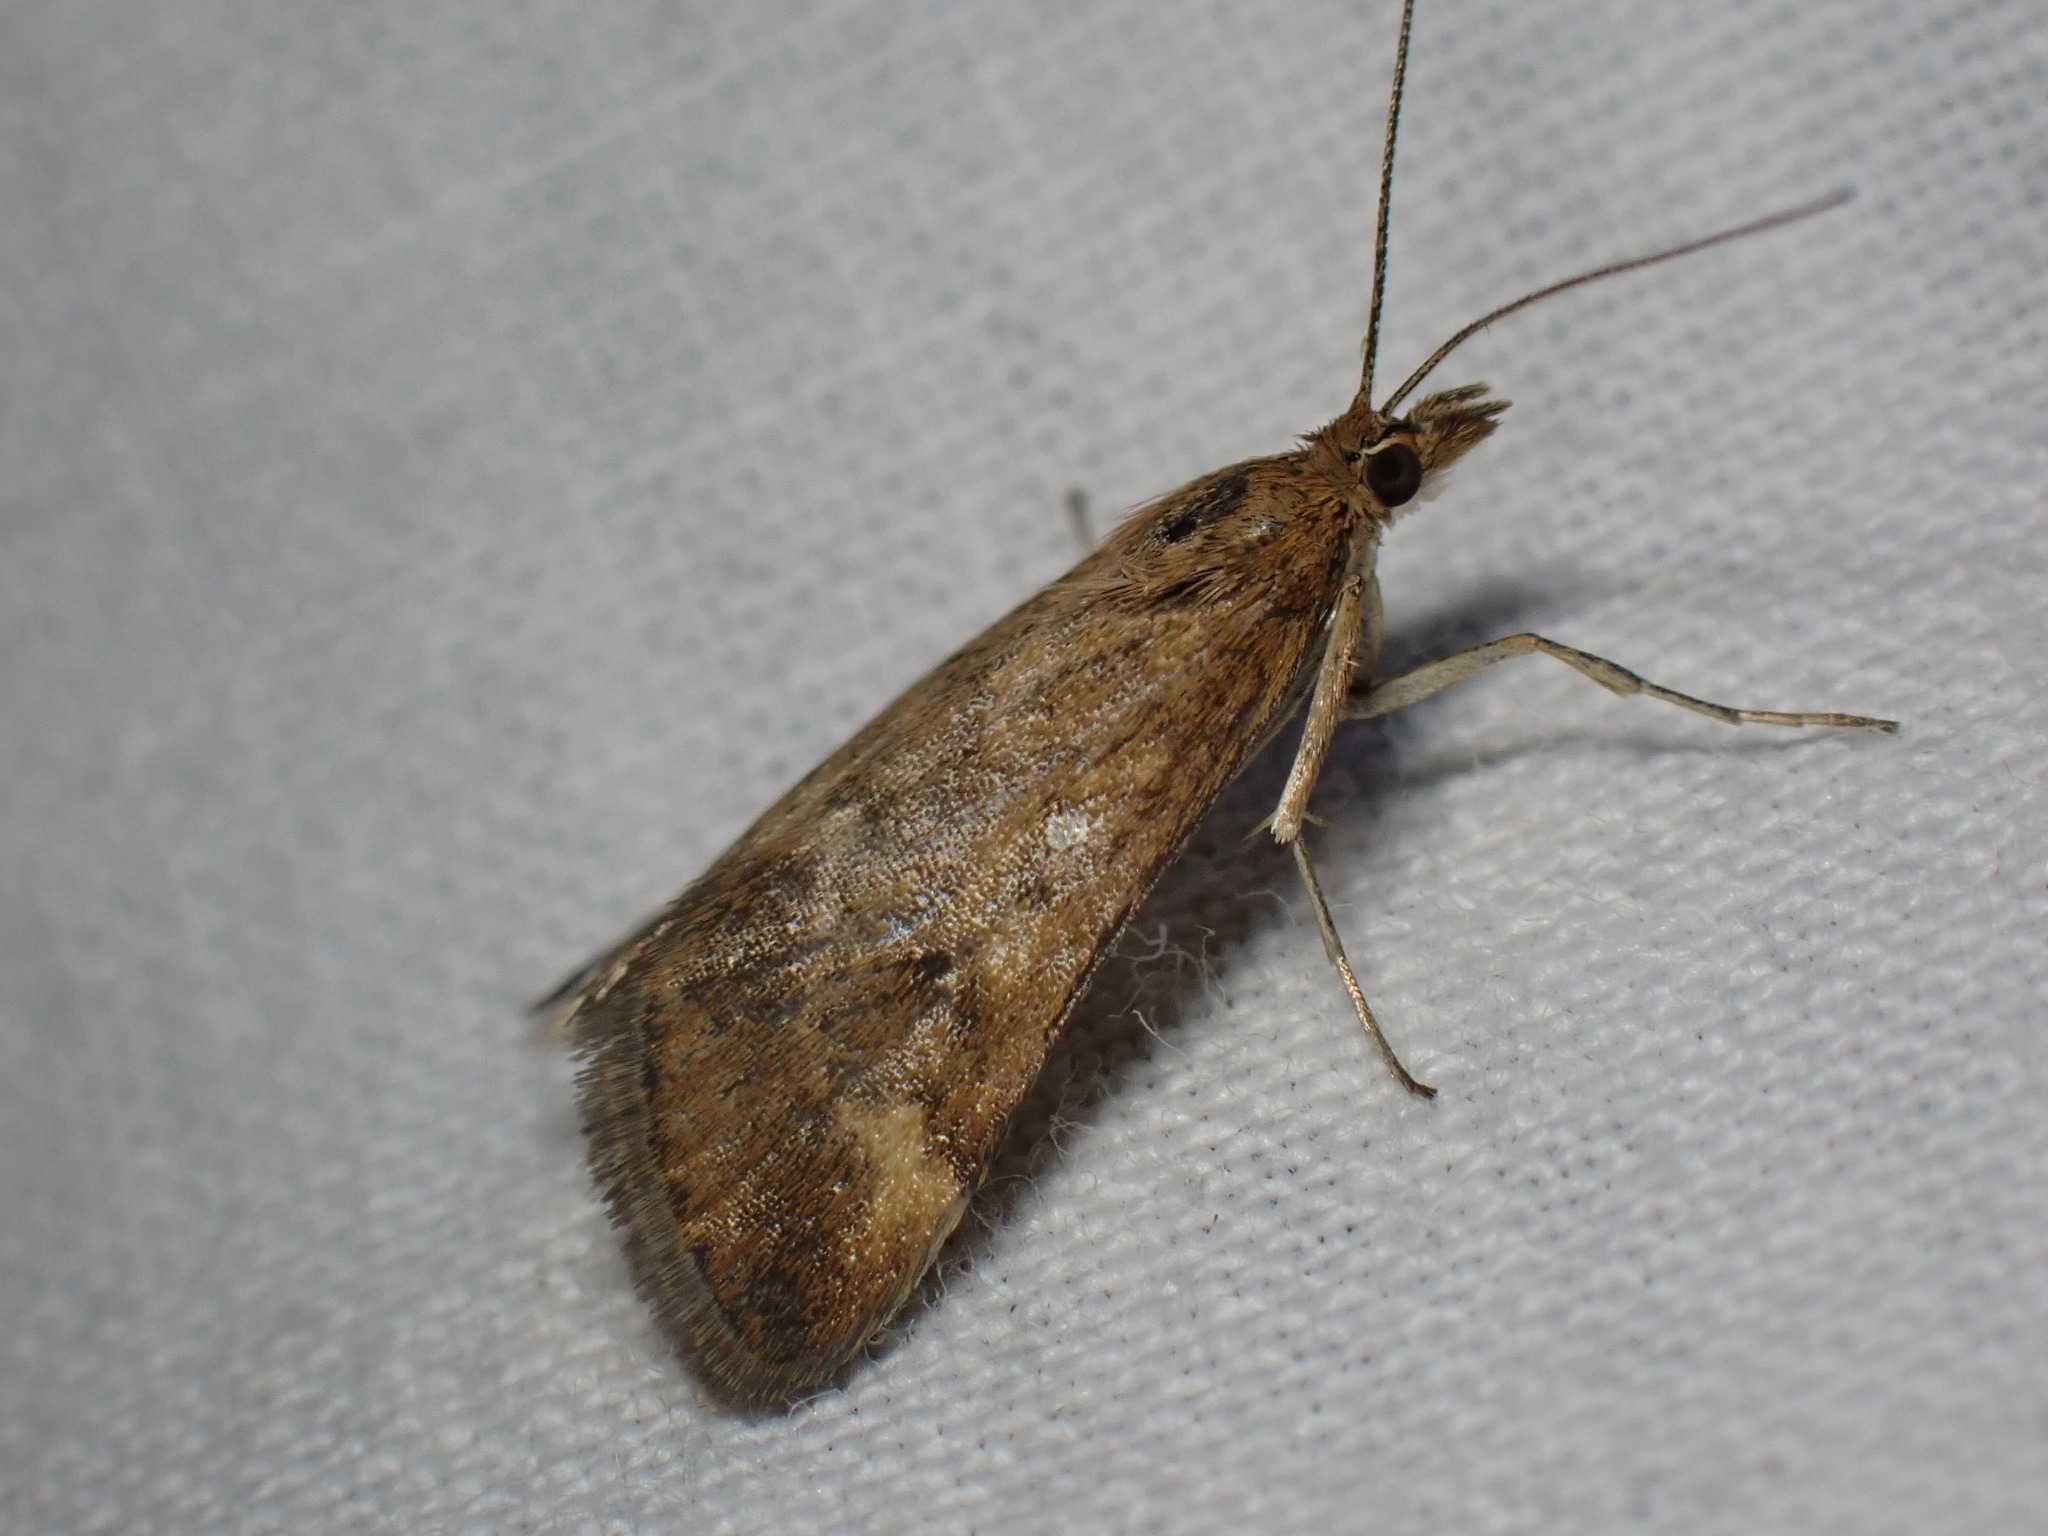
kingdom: Animalia
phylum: Arthropoda
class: Insecta
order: Lepidoptera
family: Crambidae
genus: Pyrausta
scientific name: Pyrausta despicata
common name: Straw-barred pearl
